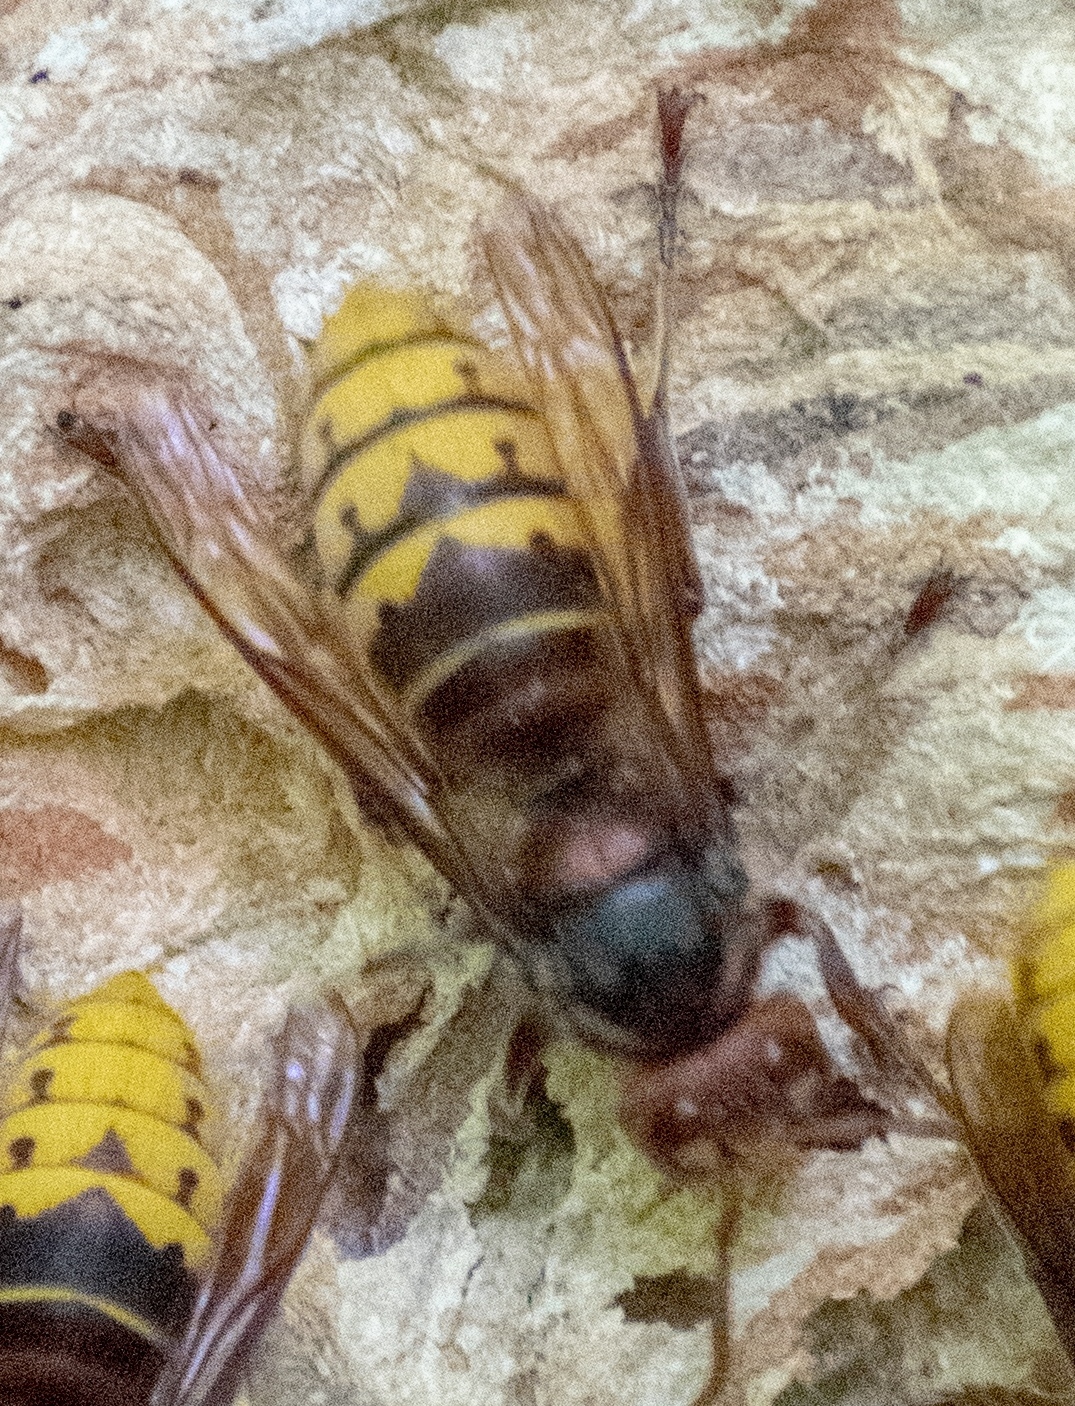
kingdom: Animalia
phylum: Arthropoda
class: Insecta
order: Hymenoptera
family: Vespidae
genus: Vespa
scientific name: Vespa crabro
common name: Hornet
